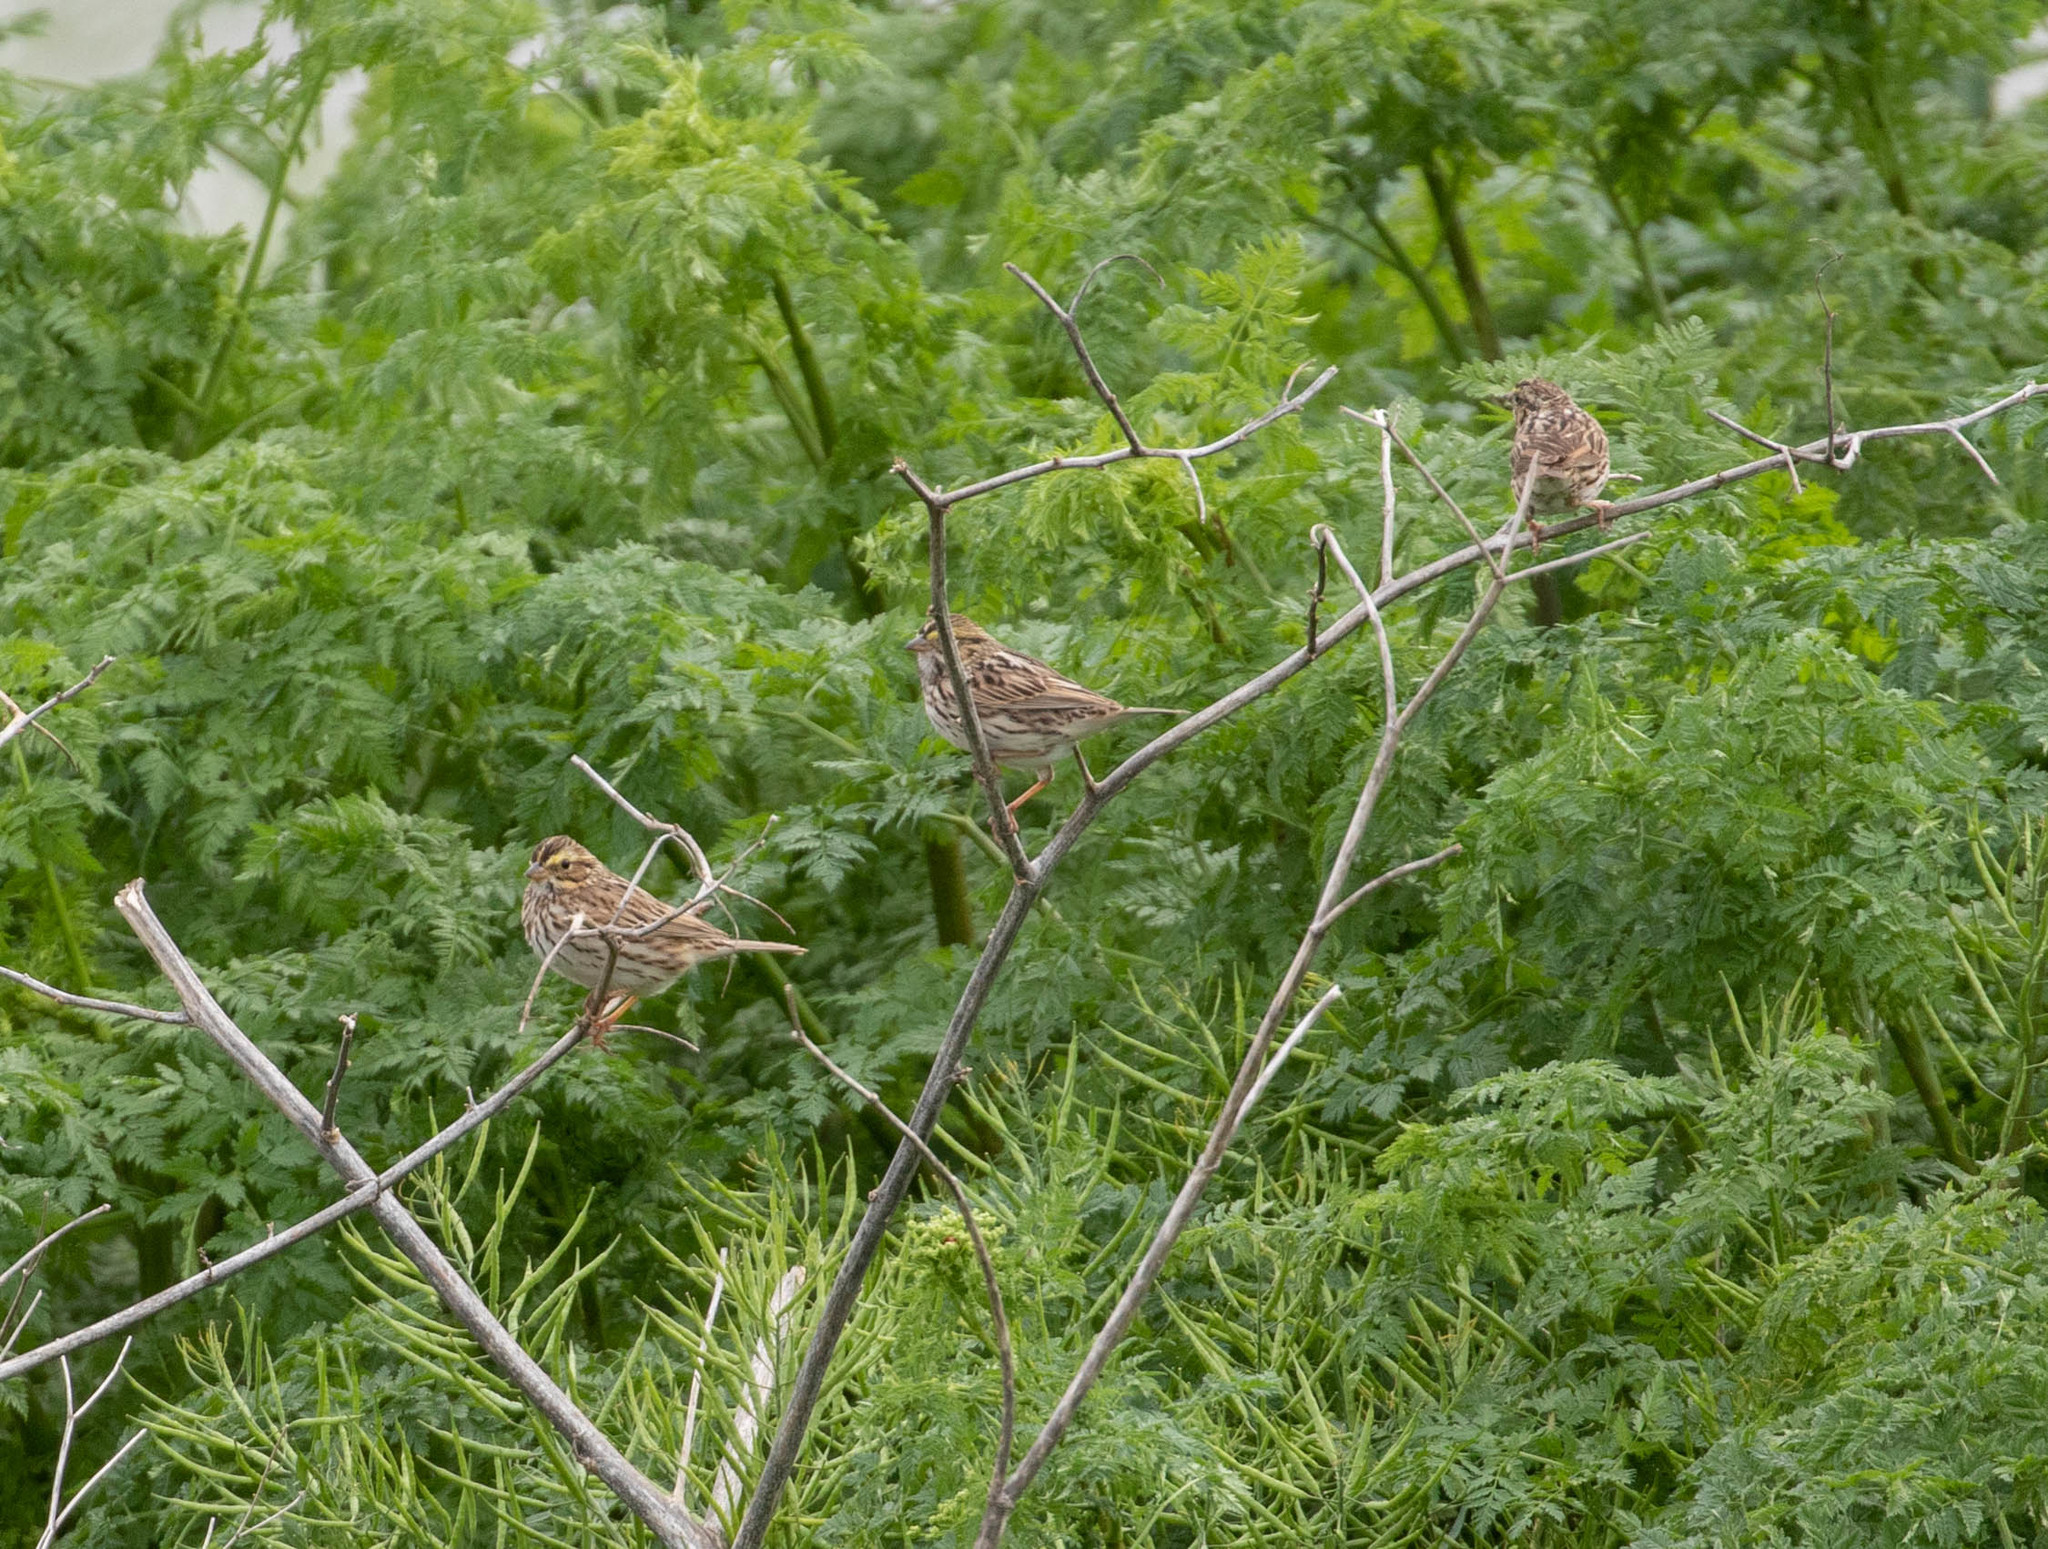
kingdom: Animalia
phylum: Chordata
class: Aves
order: Passeriformes
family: Passerellidae
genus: Passerculus
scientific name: Passerculus sandwichensis
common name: Savannah sparrow
